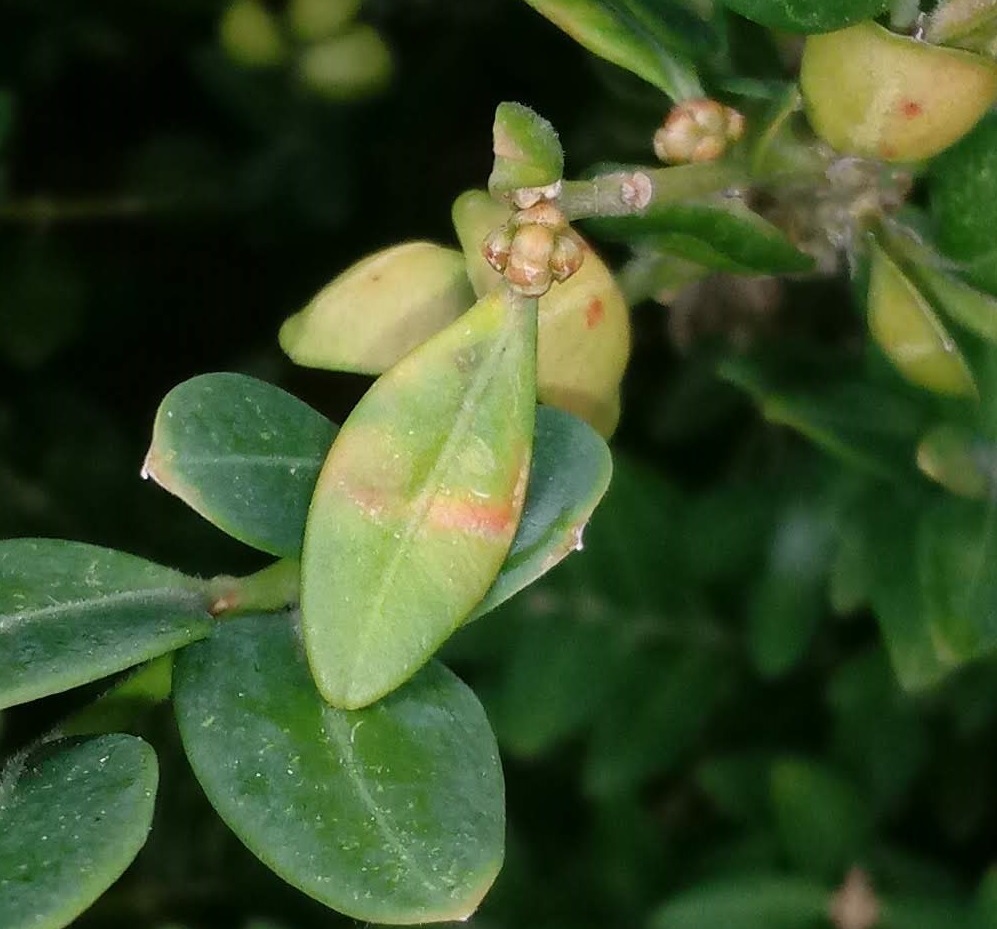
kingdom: Animalia
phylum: Arthropoda
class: Insecta
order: Diptera
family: Cecidomyiidae
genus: Monarthropalpus
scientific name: Monarthropalpus flavus
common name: Boxwood leafminer
